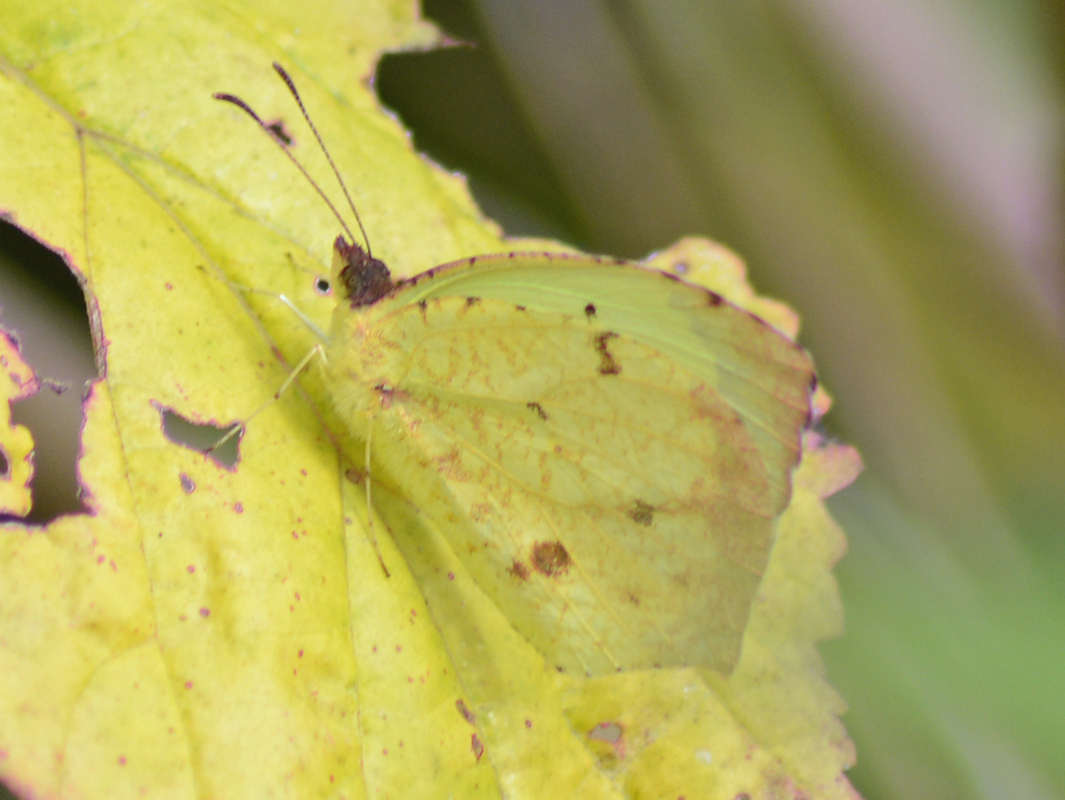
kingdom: Animalia
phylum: Arthropoda
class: Insecta
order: Lepidoptera
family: Pieridae
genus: Abaeis
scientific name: Abaeis salome
